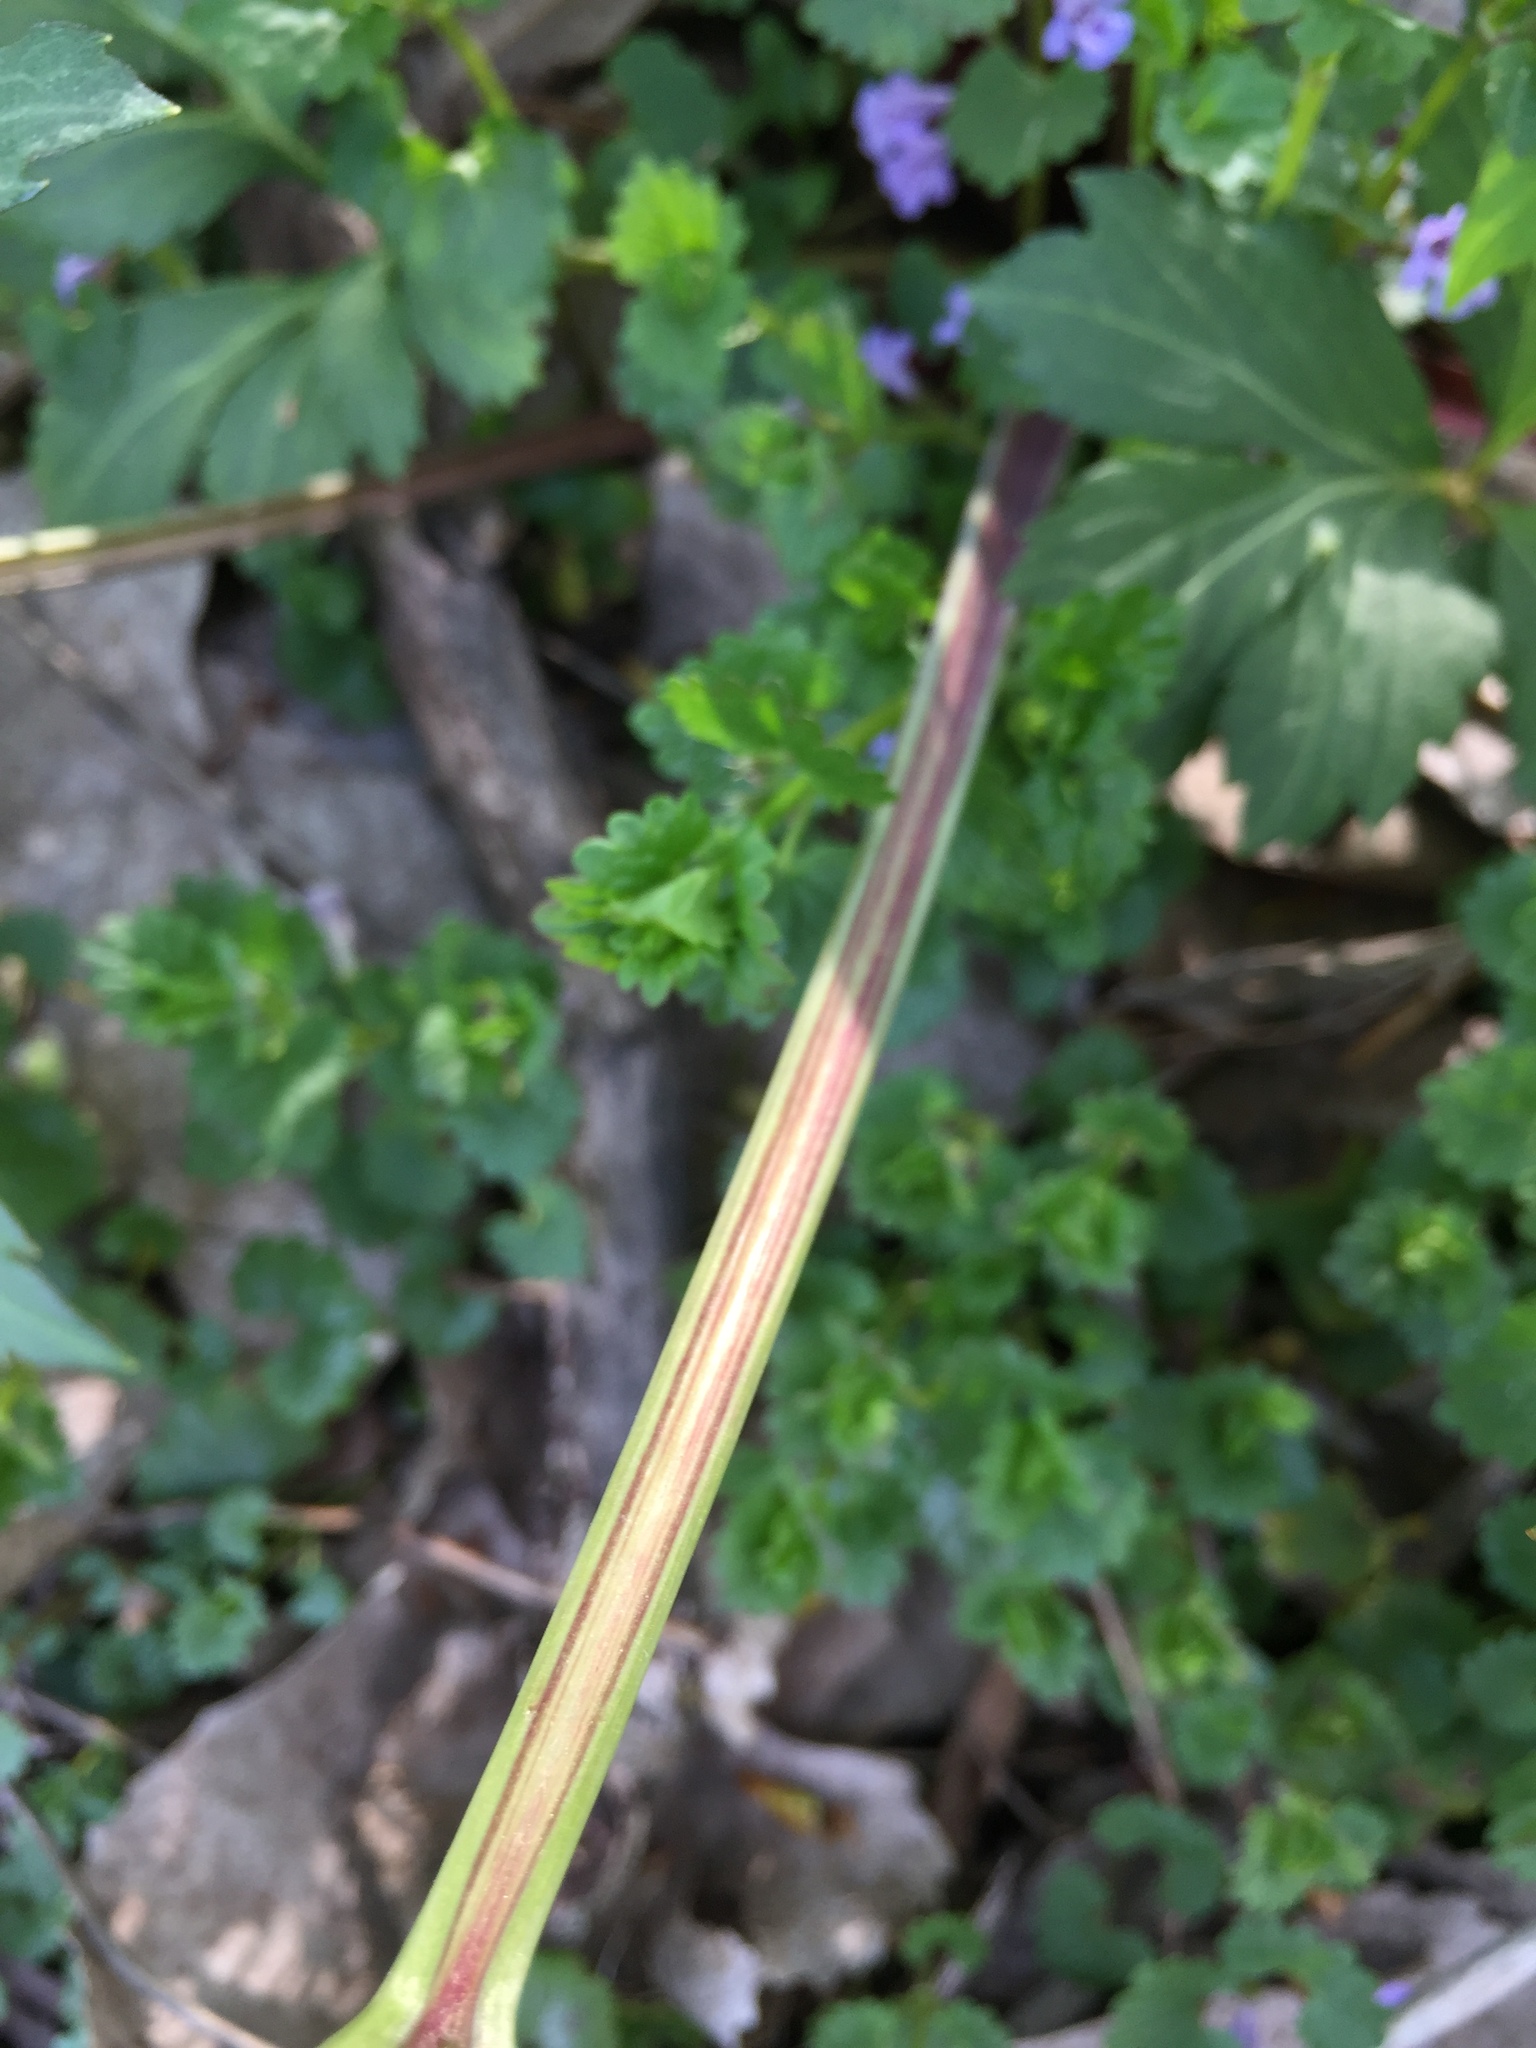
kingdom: Plantae
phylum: Tracheophyta
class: Magnoliopsida
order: Asterales
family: Asteraceae
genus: Rudbeckia
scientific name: Rudbeckia laciniata
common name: Coneflower
